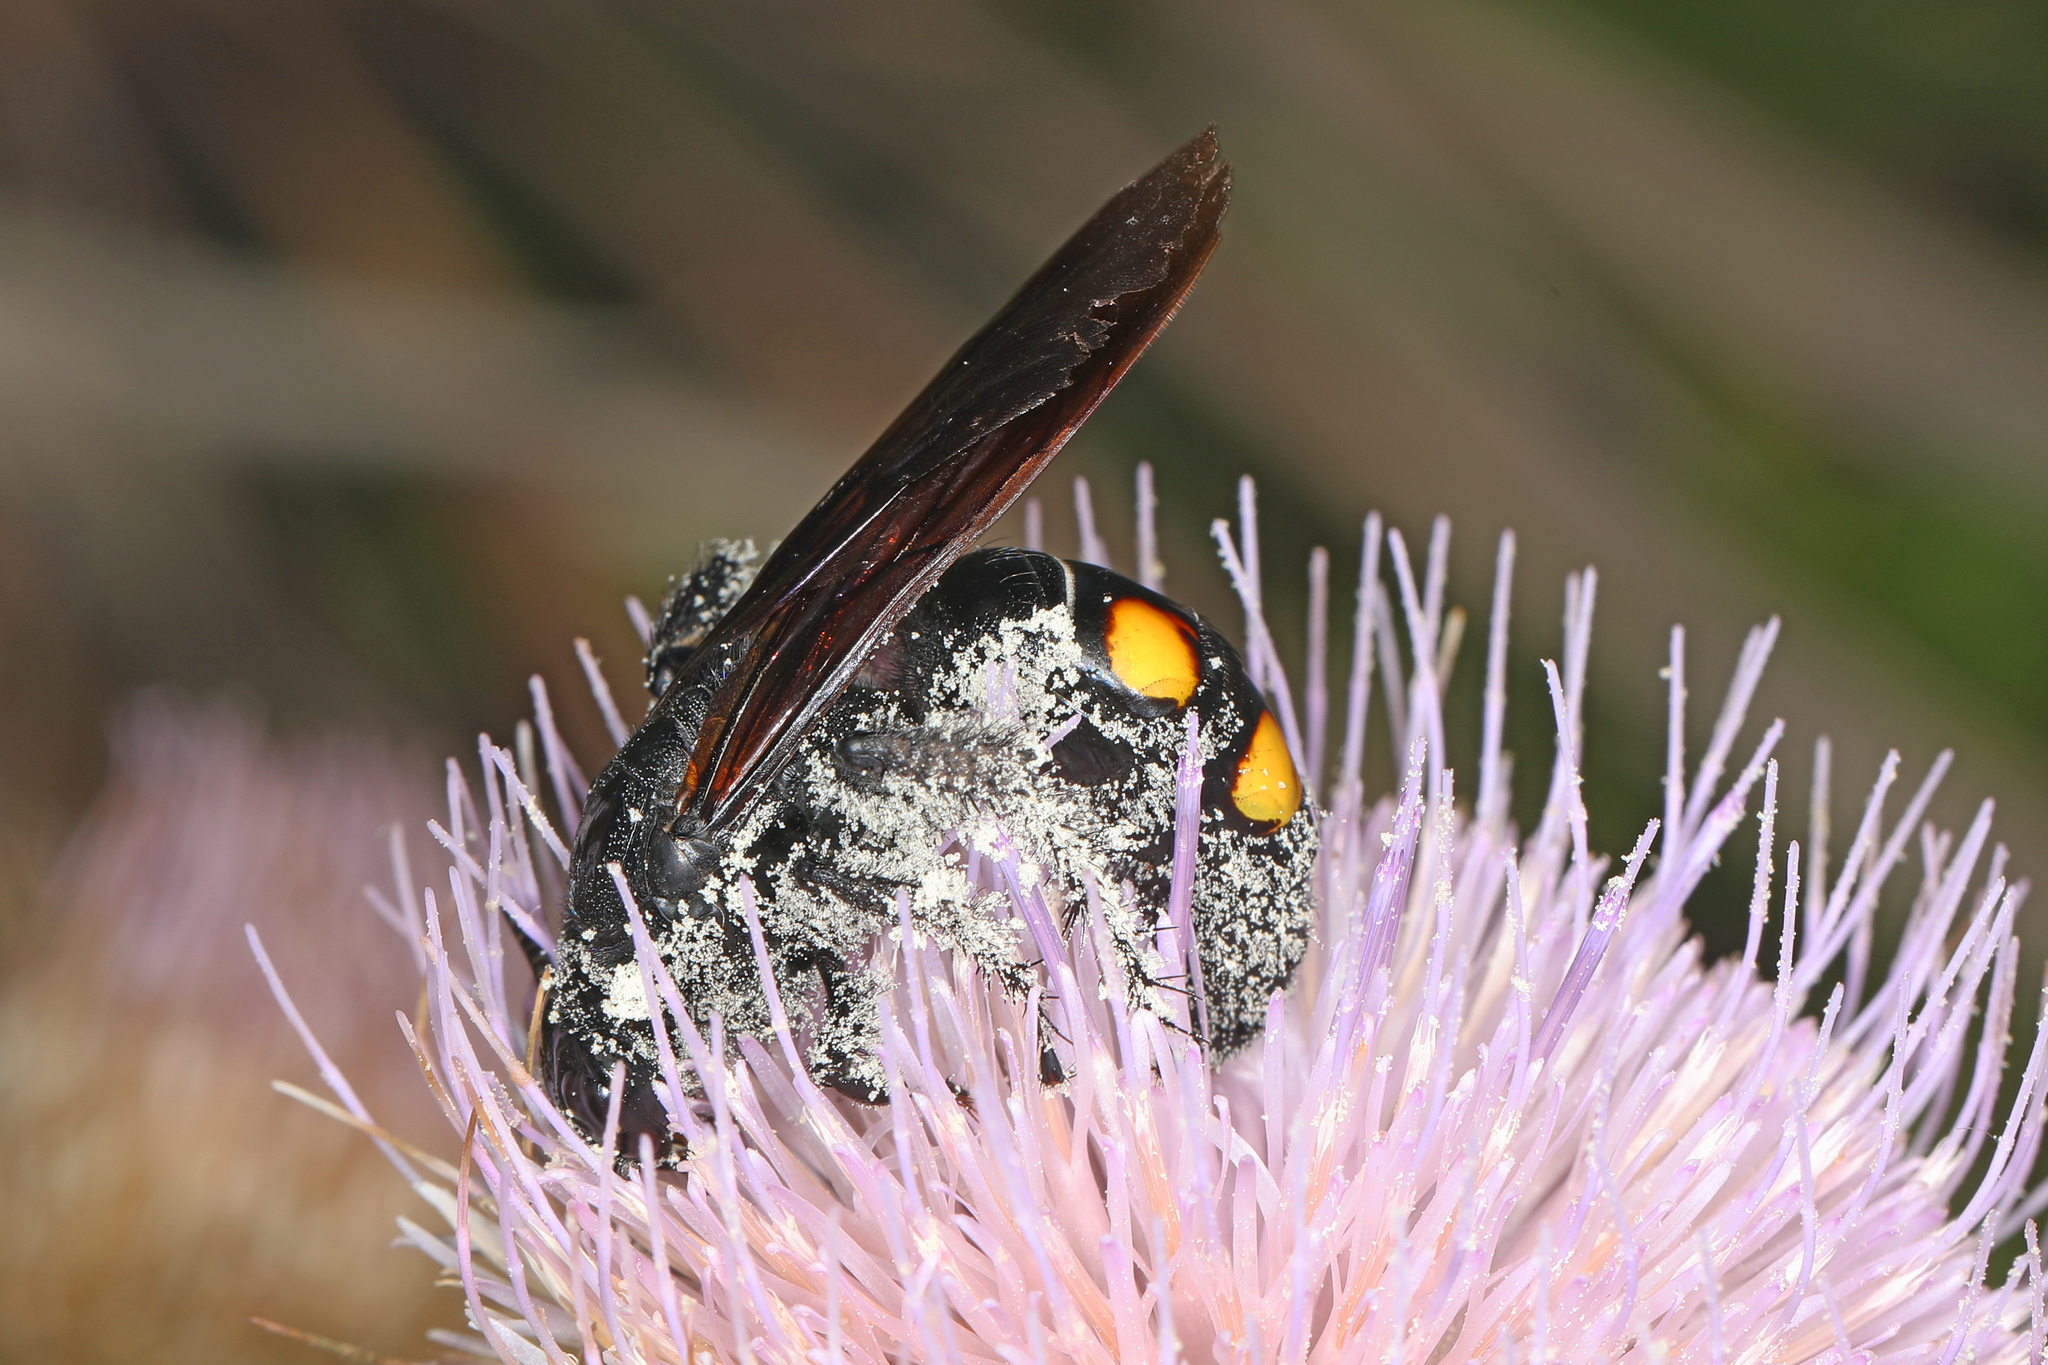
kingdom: Animalia
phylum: Arthropoda
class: Insecta
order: Hymenoptera
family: Scoliidae
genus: Pygodasis
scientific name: Pygodasis
